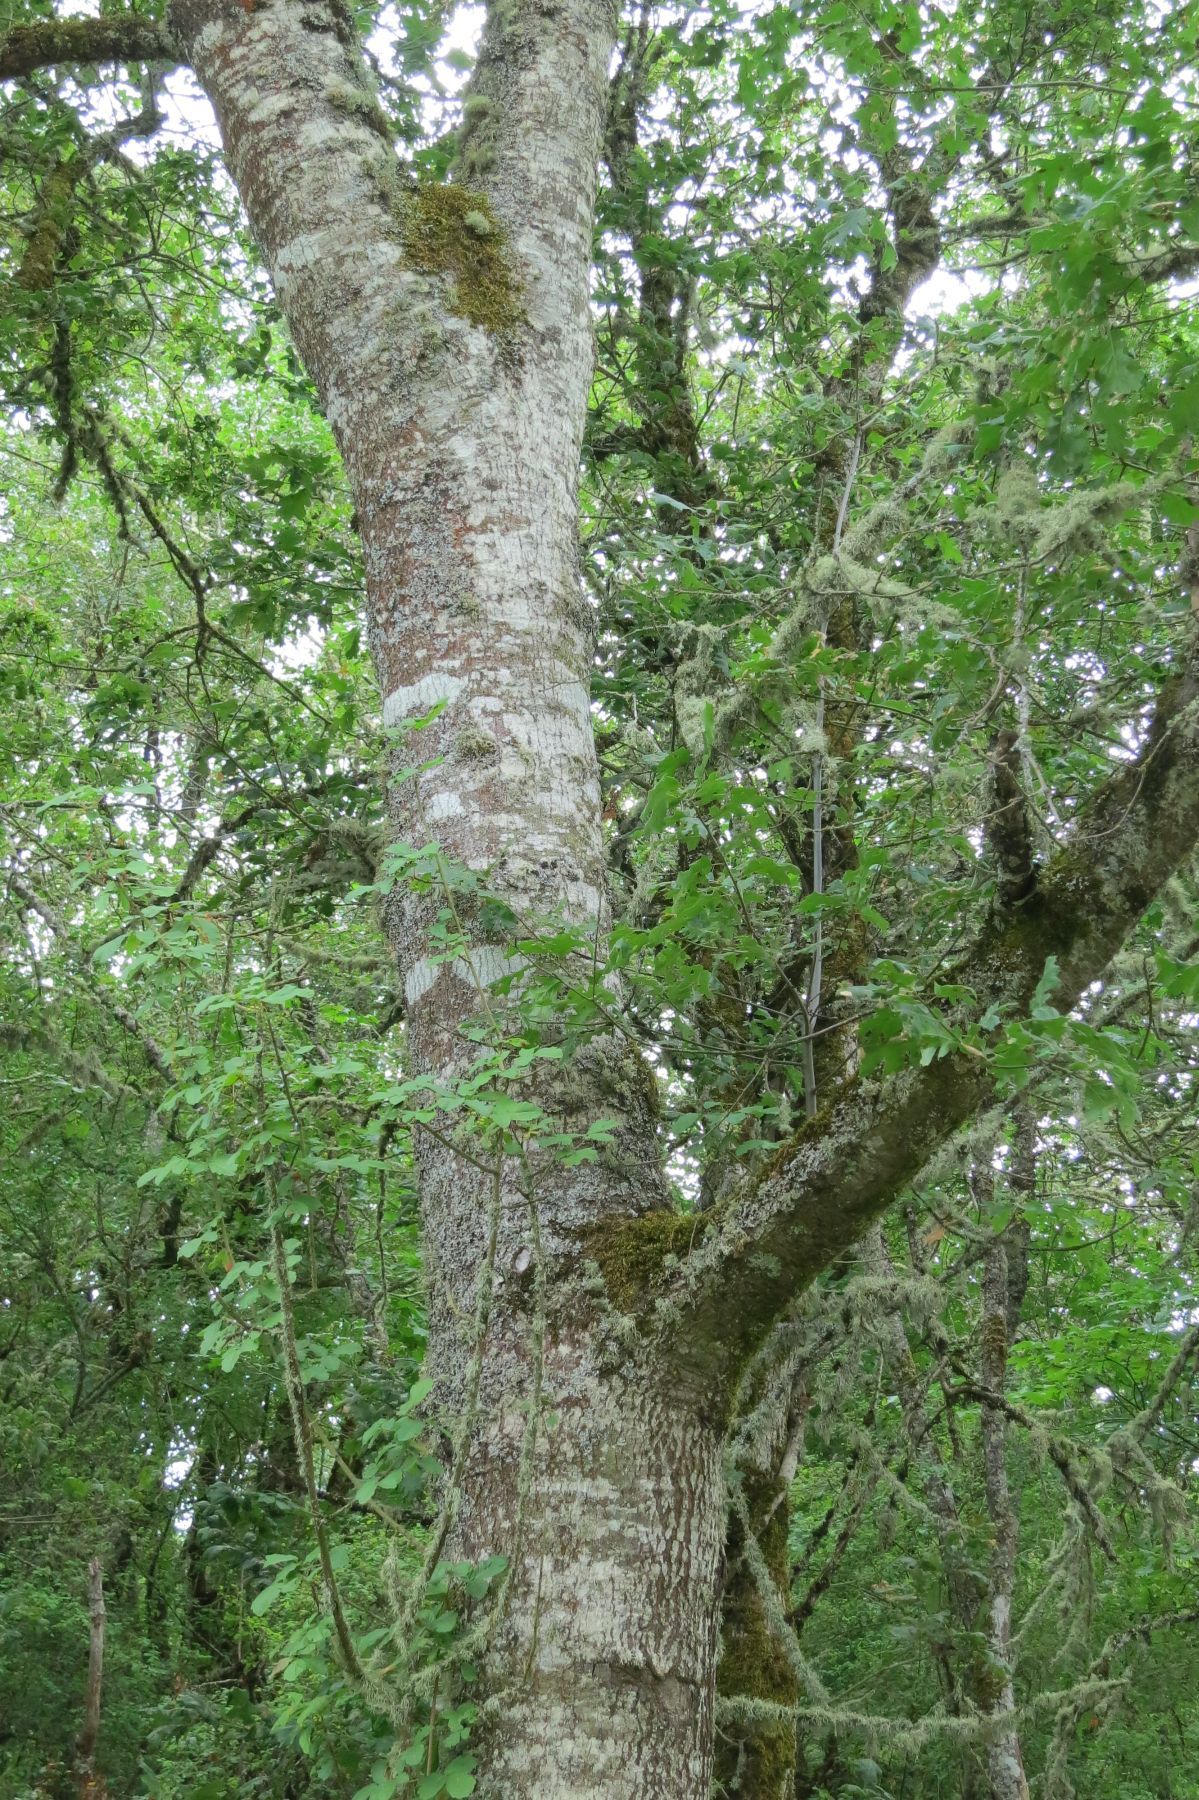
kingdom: Plantae
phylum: Tracheophyta
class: Magnoliopsida
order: Fagales
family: Fagaceae
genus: Quercus
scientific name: Quercus kelloggii
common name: California black oak
